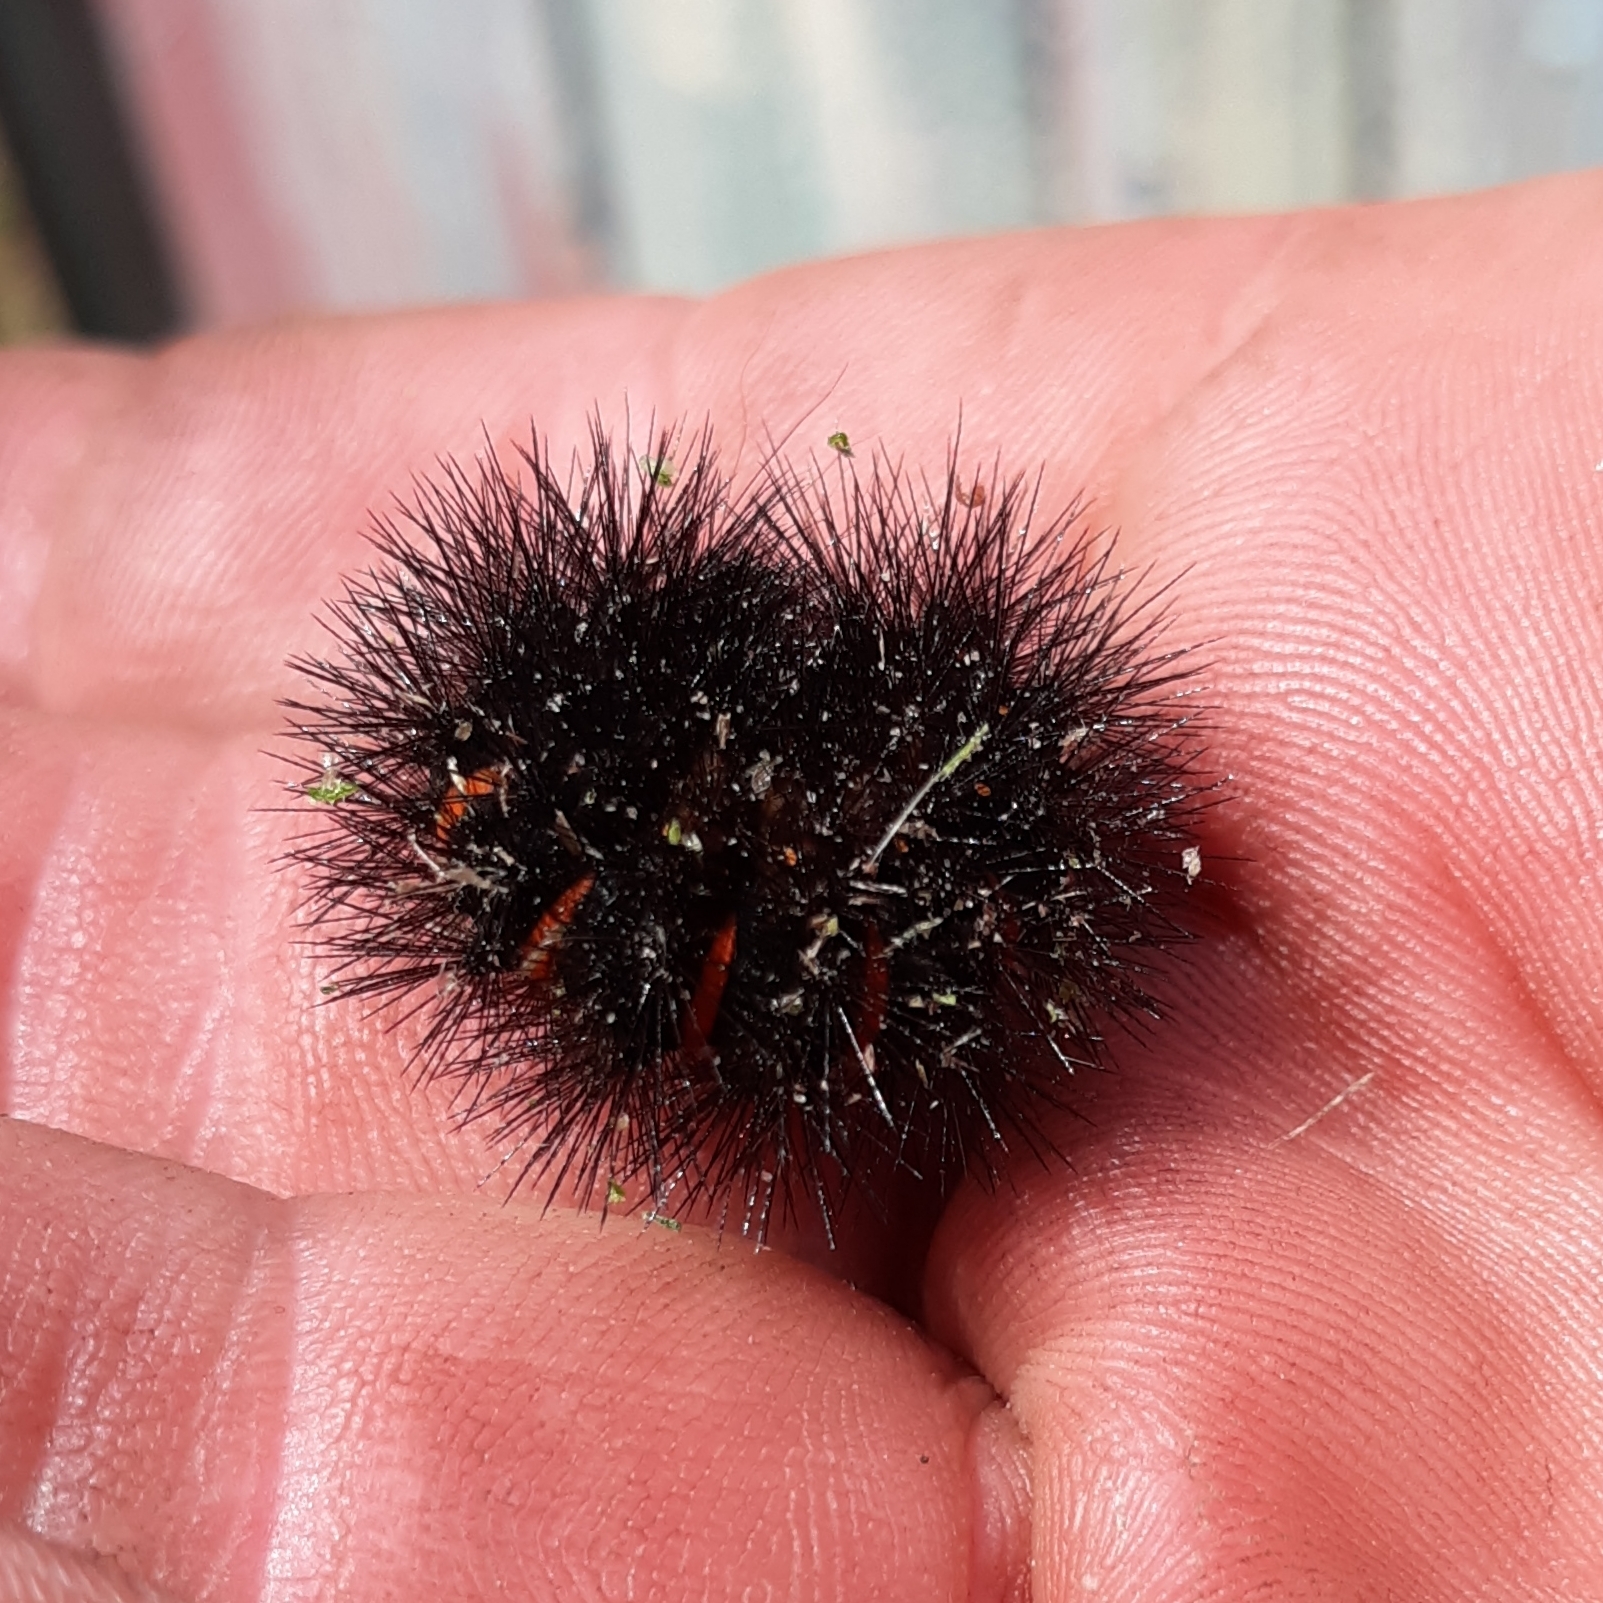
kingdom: Animalia
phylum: Arthropoda
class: Insecta
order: Lepidoptera
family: Erebidae
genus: Hypercompe
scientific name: Hypercompe scribonia
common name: Giant leopard moth
